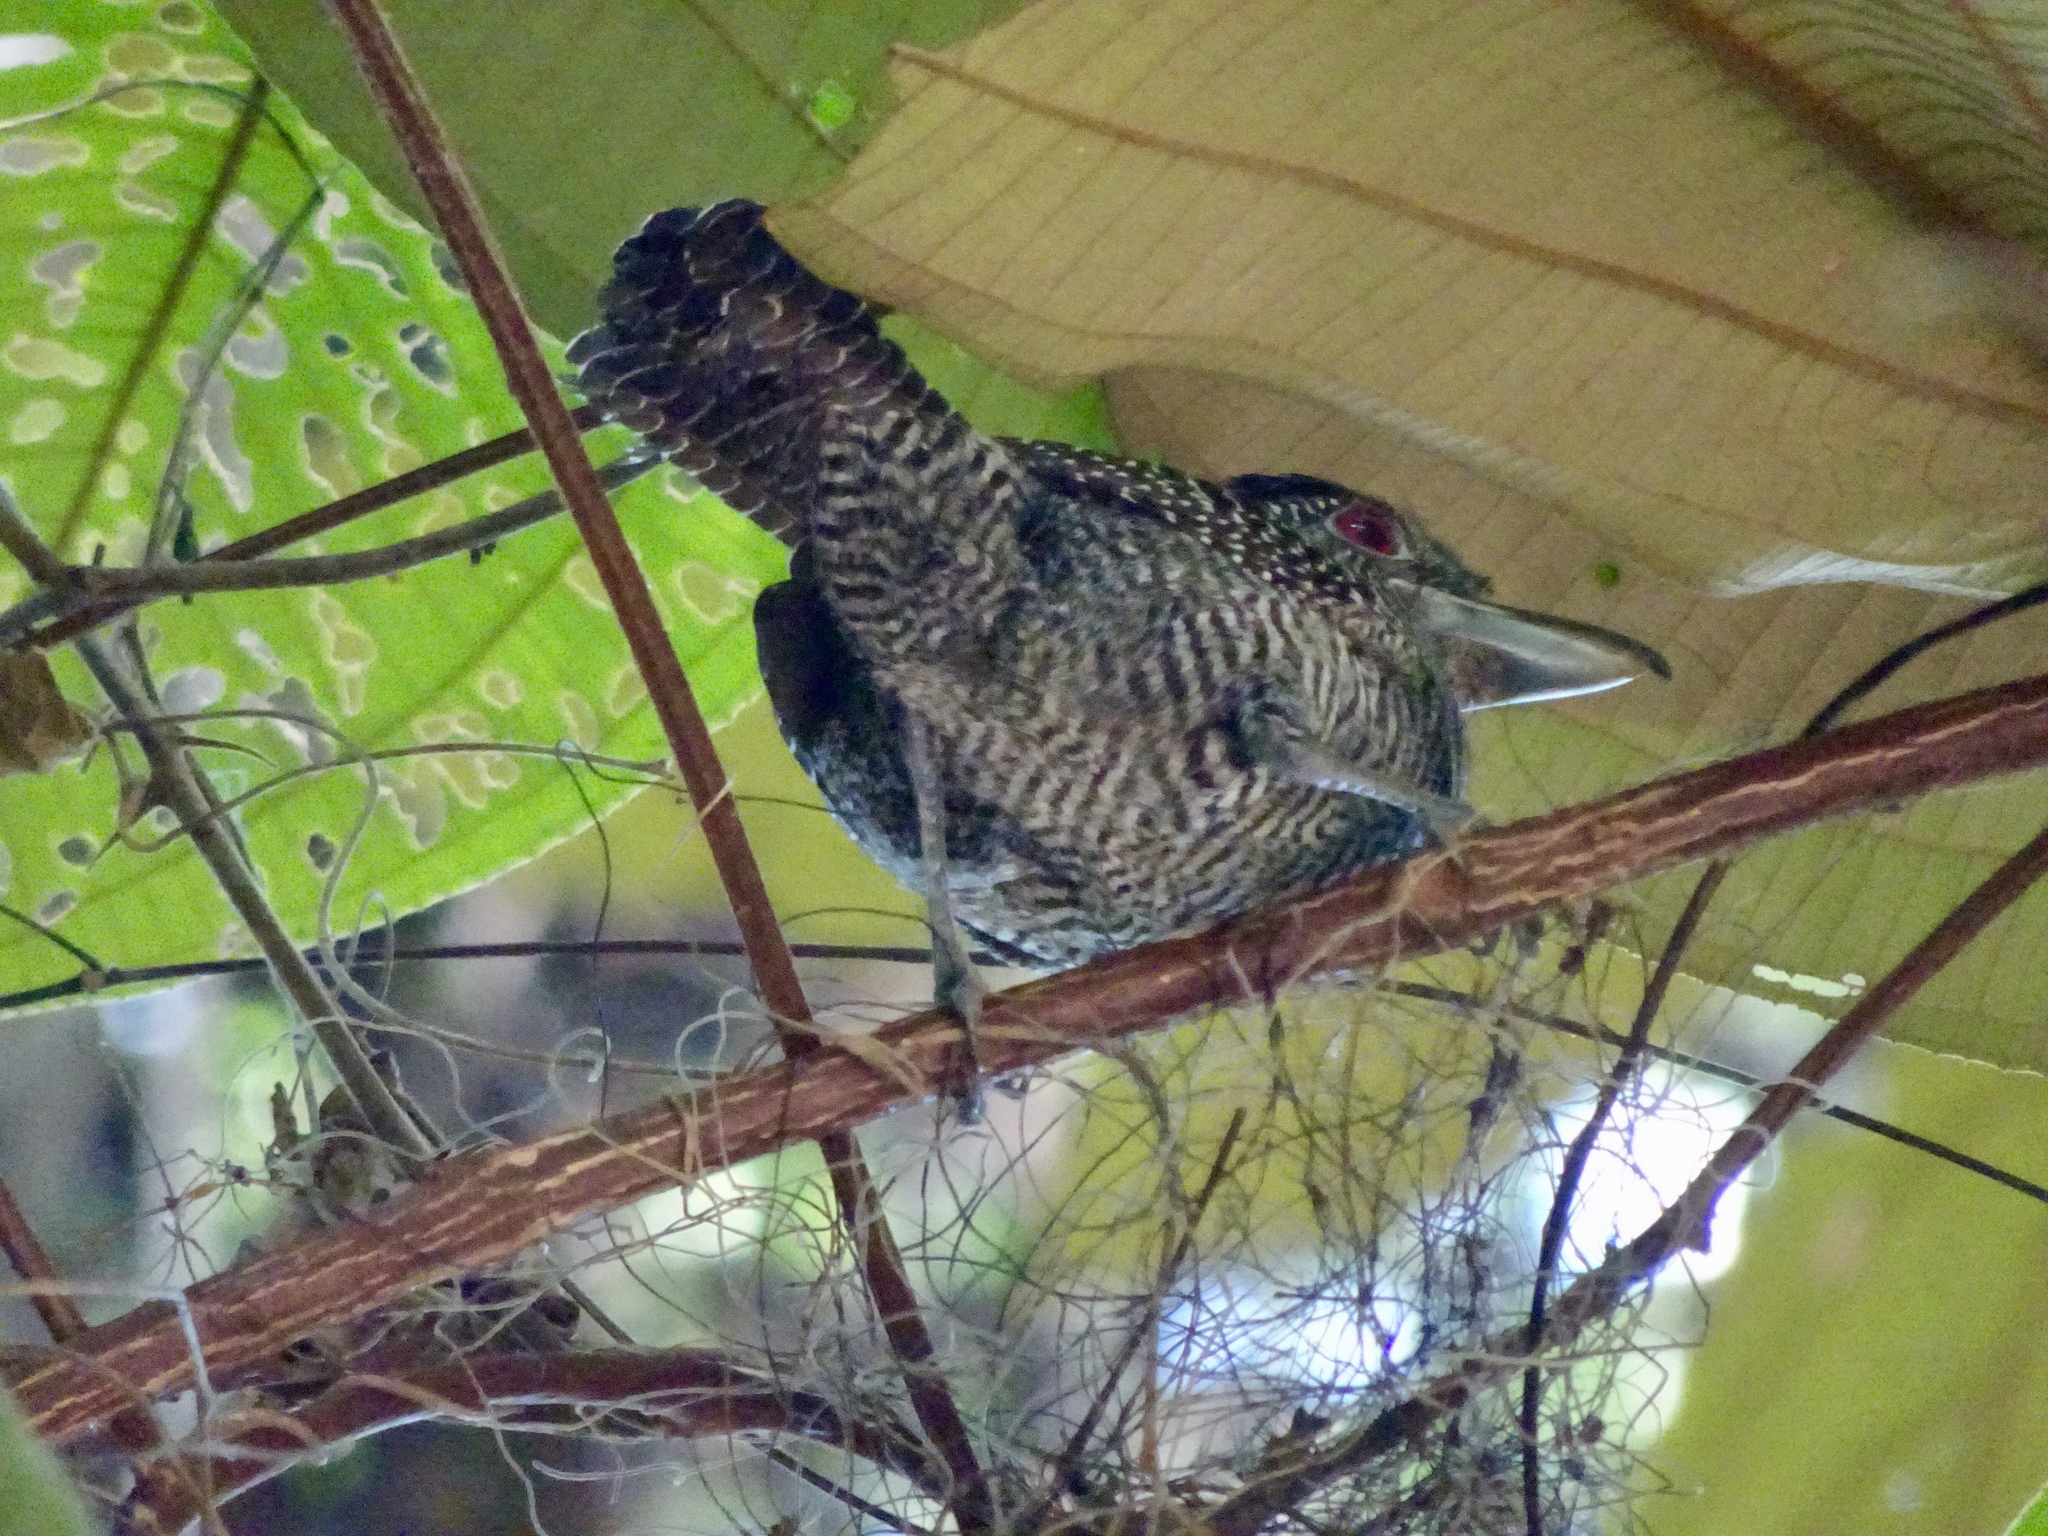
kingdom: Animalia
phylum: Chordata
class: Aves
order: Passeriformes
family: Thamnophilidae
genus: Cymbilaimus
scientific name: Cymbilaimus lineatus
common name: Fasciated antshrike
